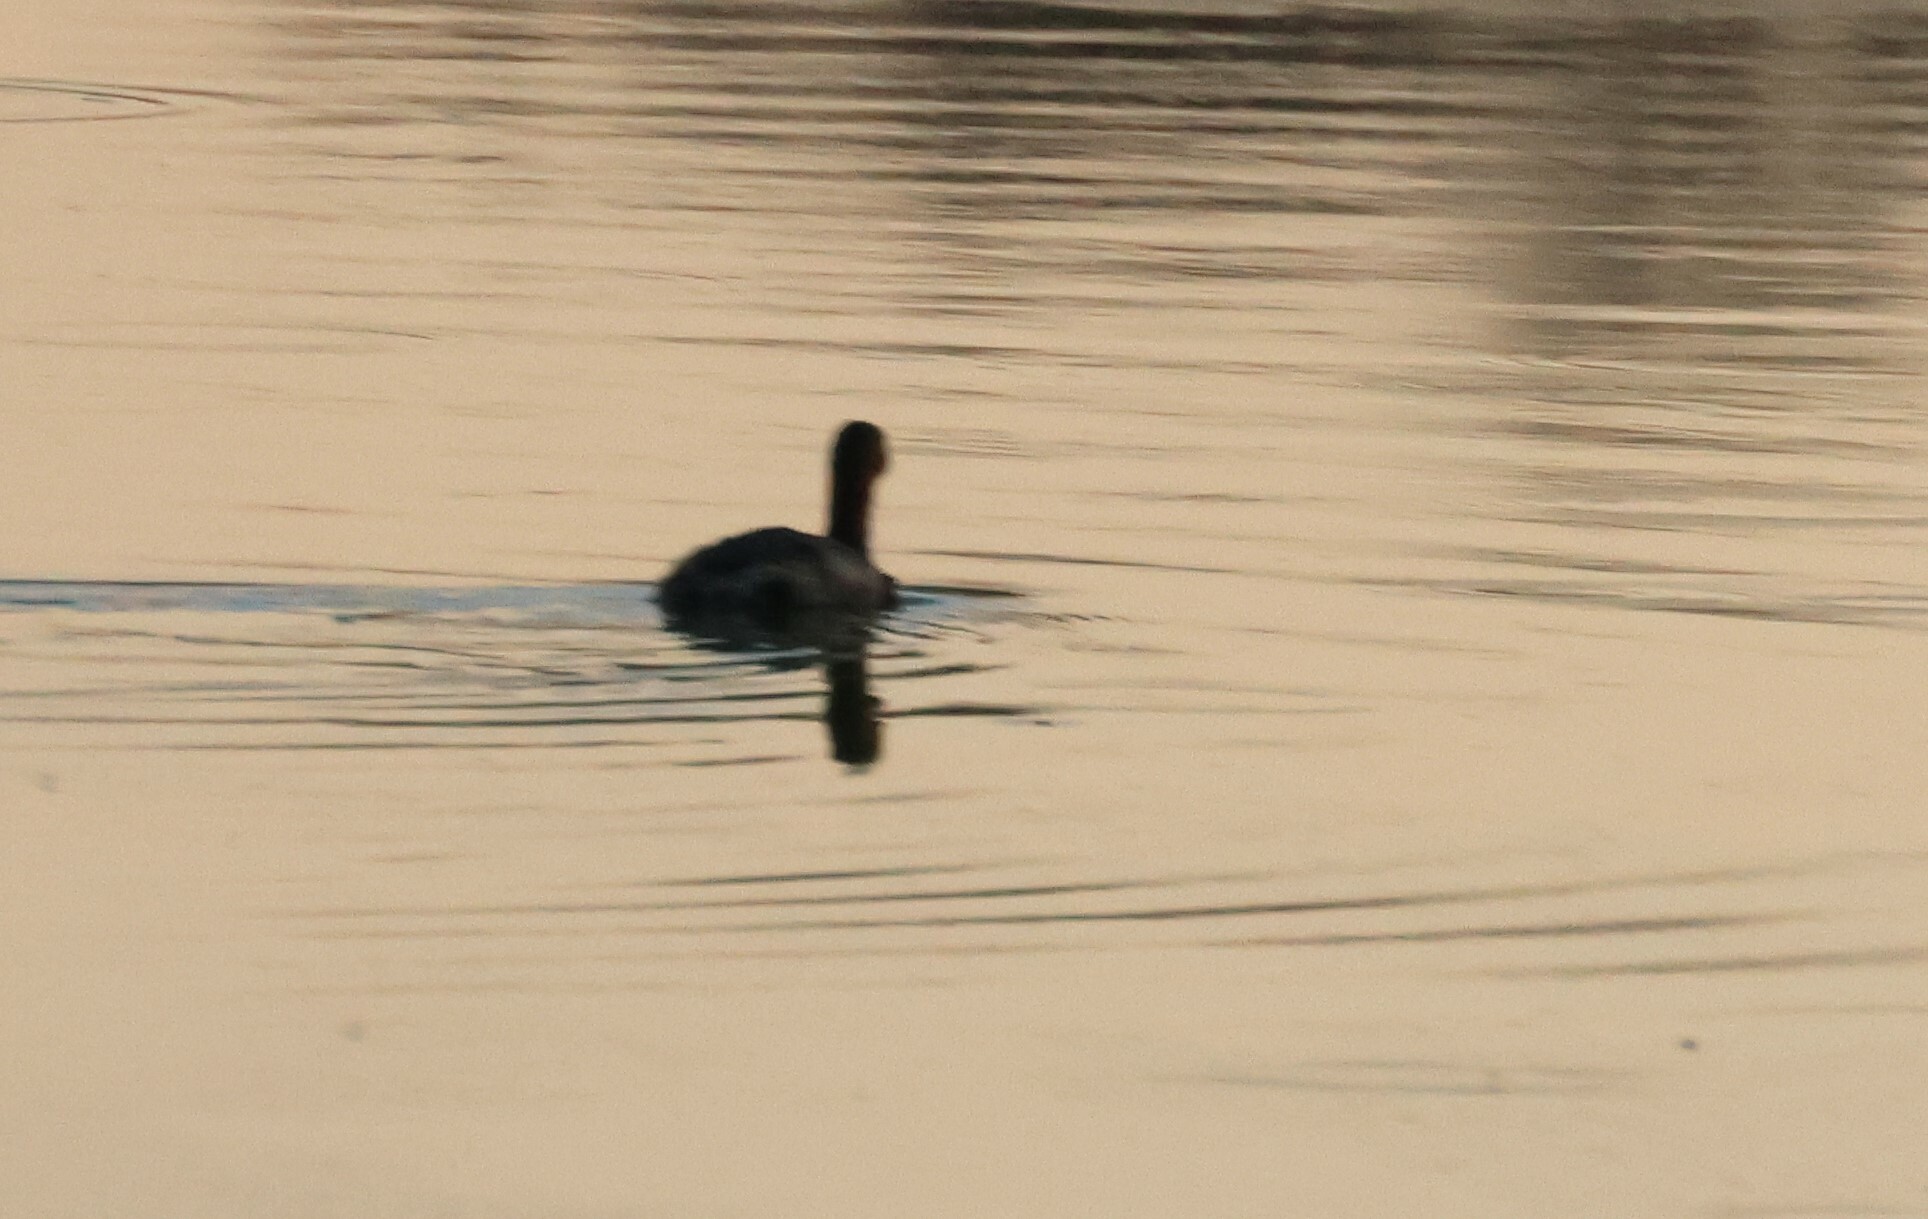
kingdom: Animalia
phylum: Chordata
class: Aves
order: Podicipediformes
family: Podicipedidae
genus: Tachybaptus
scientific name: Tachybaptus ruficollis
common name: Little grebe
